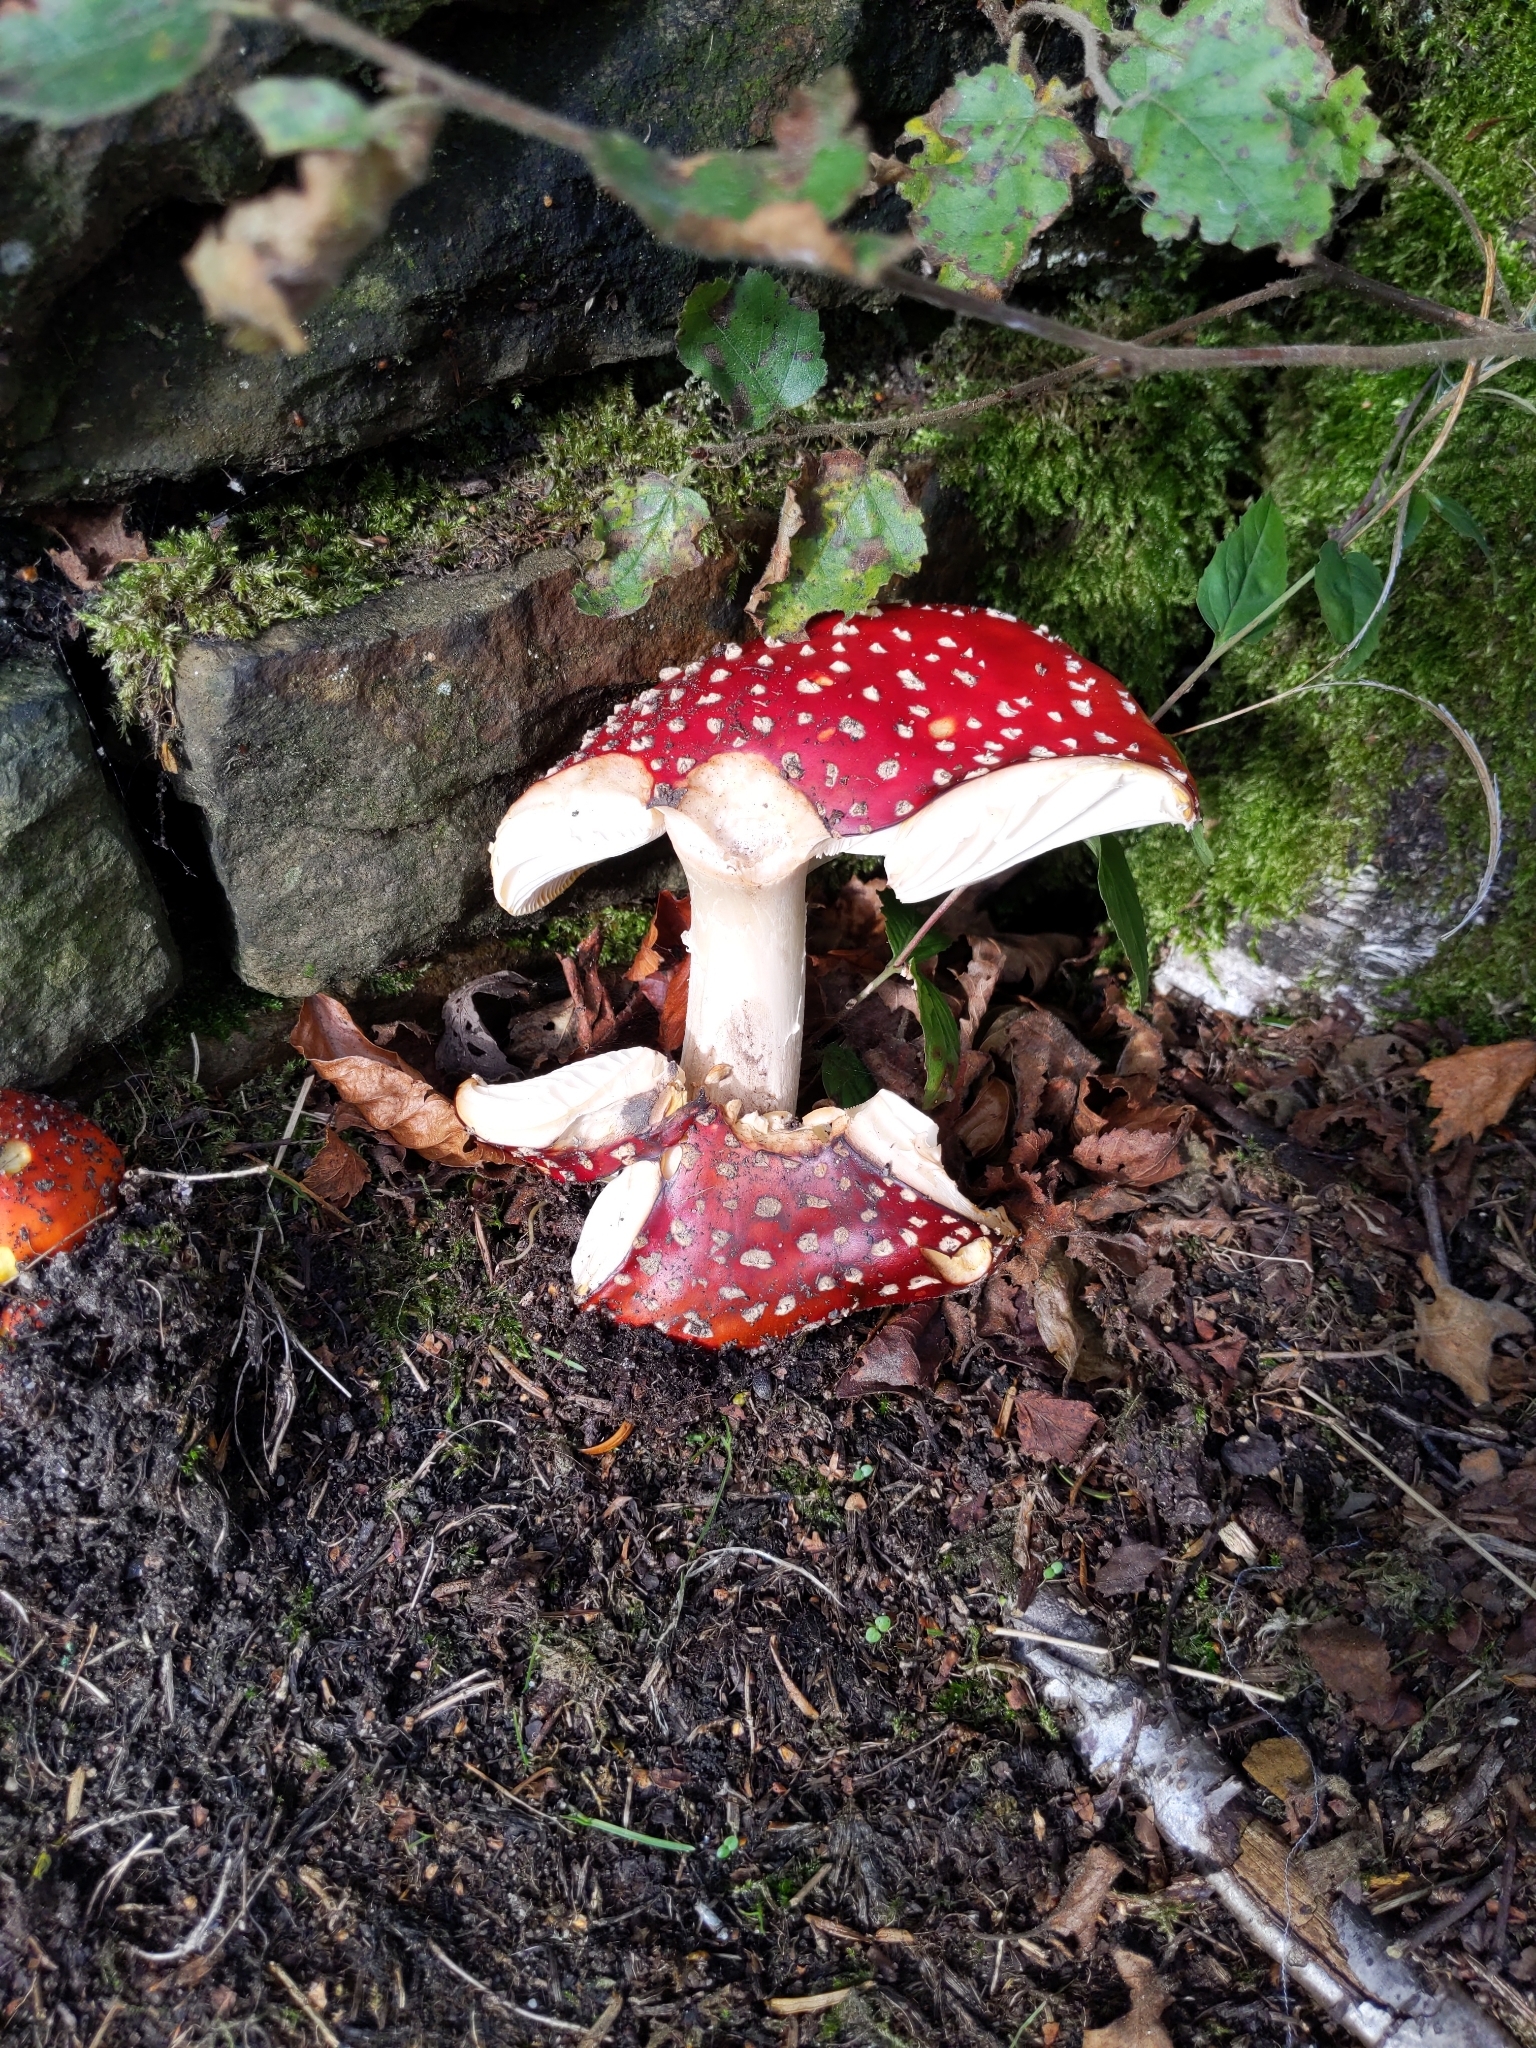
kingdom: Fungi
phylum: Basidiomycota
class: Agaricomycetes
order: Agaricales
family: Amanitaceae
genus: Amanita
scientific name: Amanita muscaria
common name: Fly agaric
